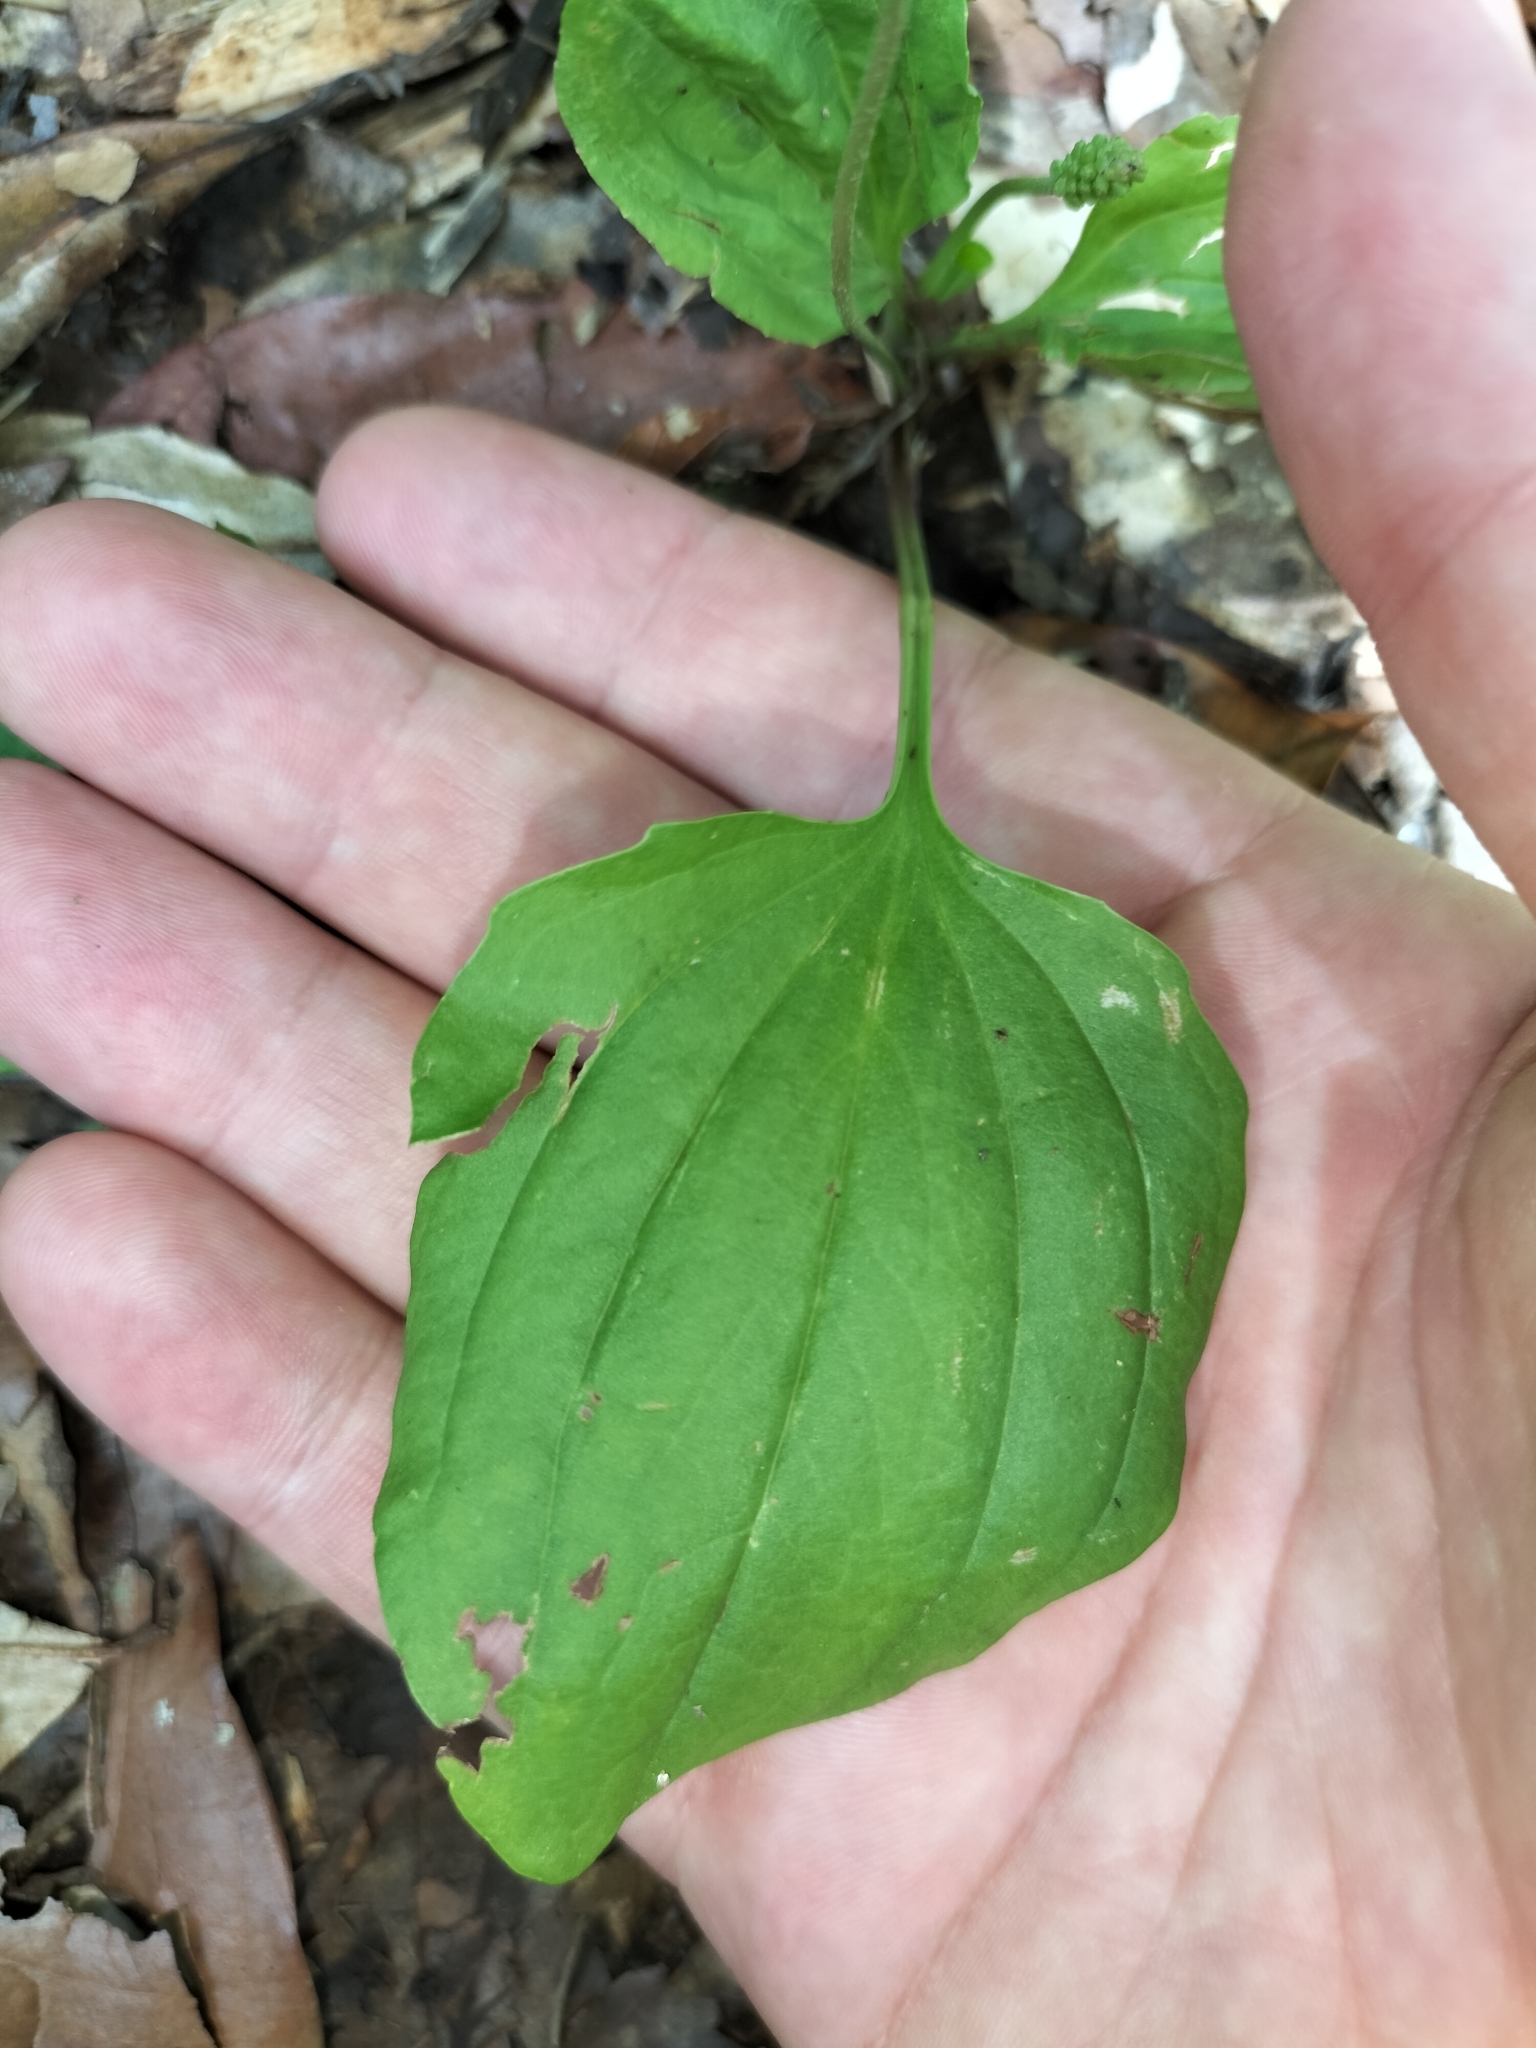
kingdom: Plantae
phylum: Tracheophyta
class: Magnoliopsida
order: Lamiales
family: Plantaginaceae
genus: Plantago
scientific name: Plantago major
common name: Common plantain
